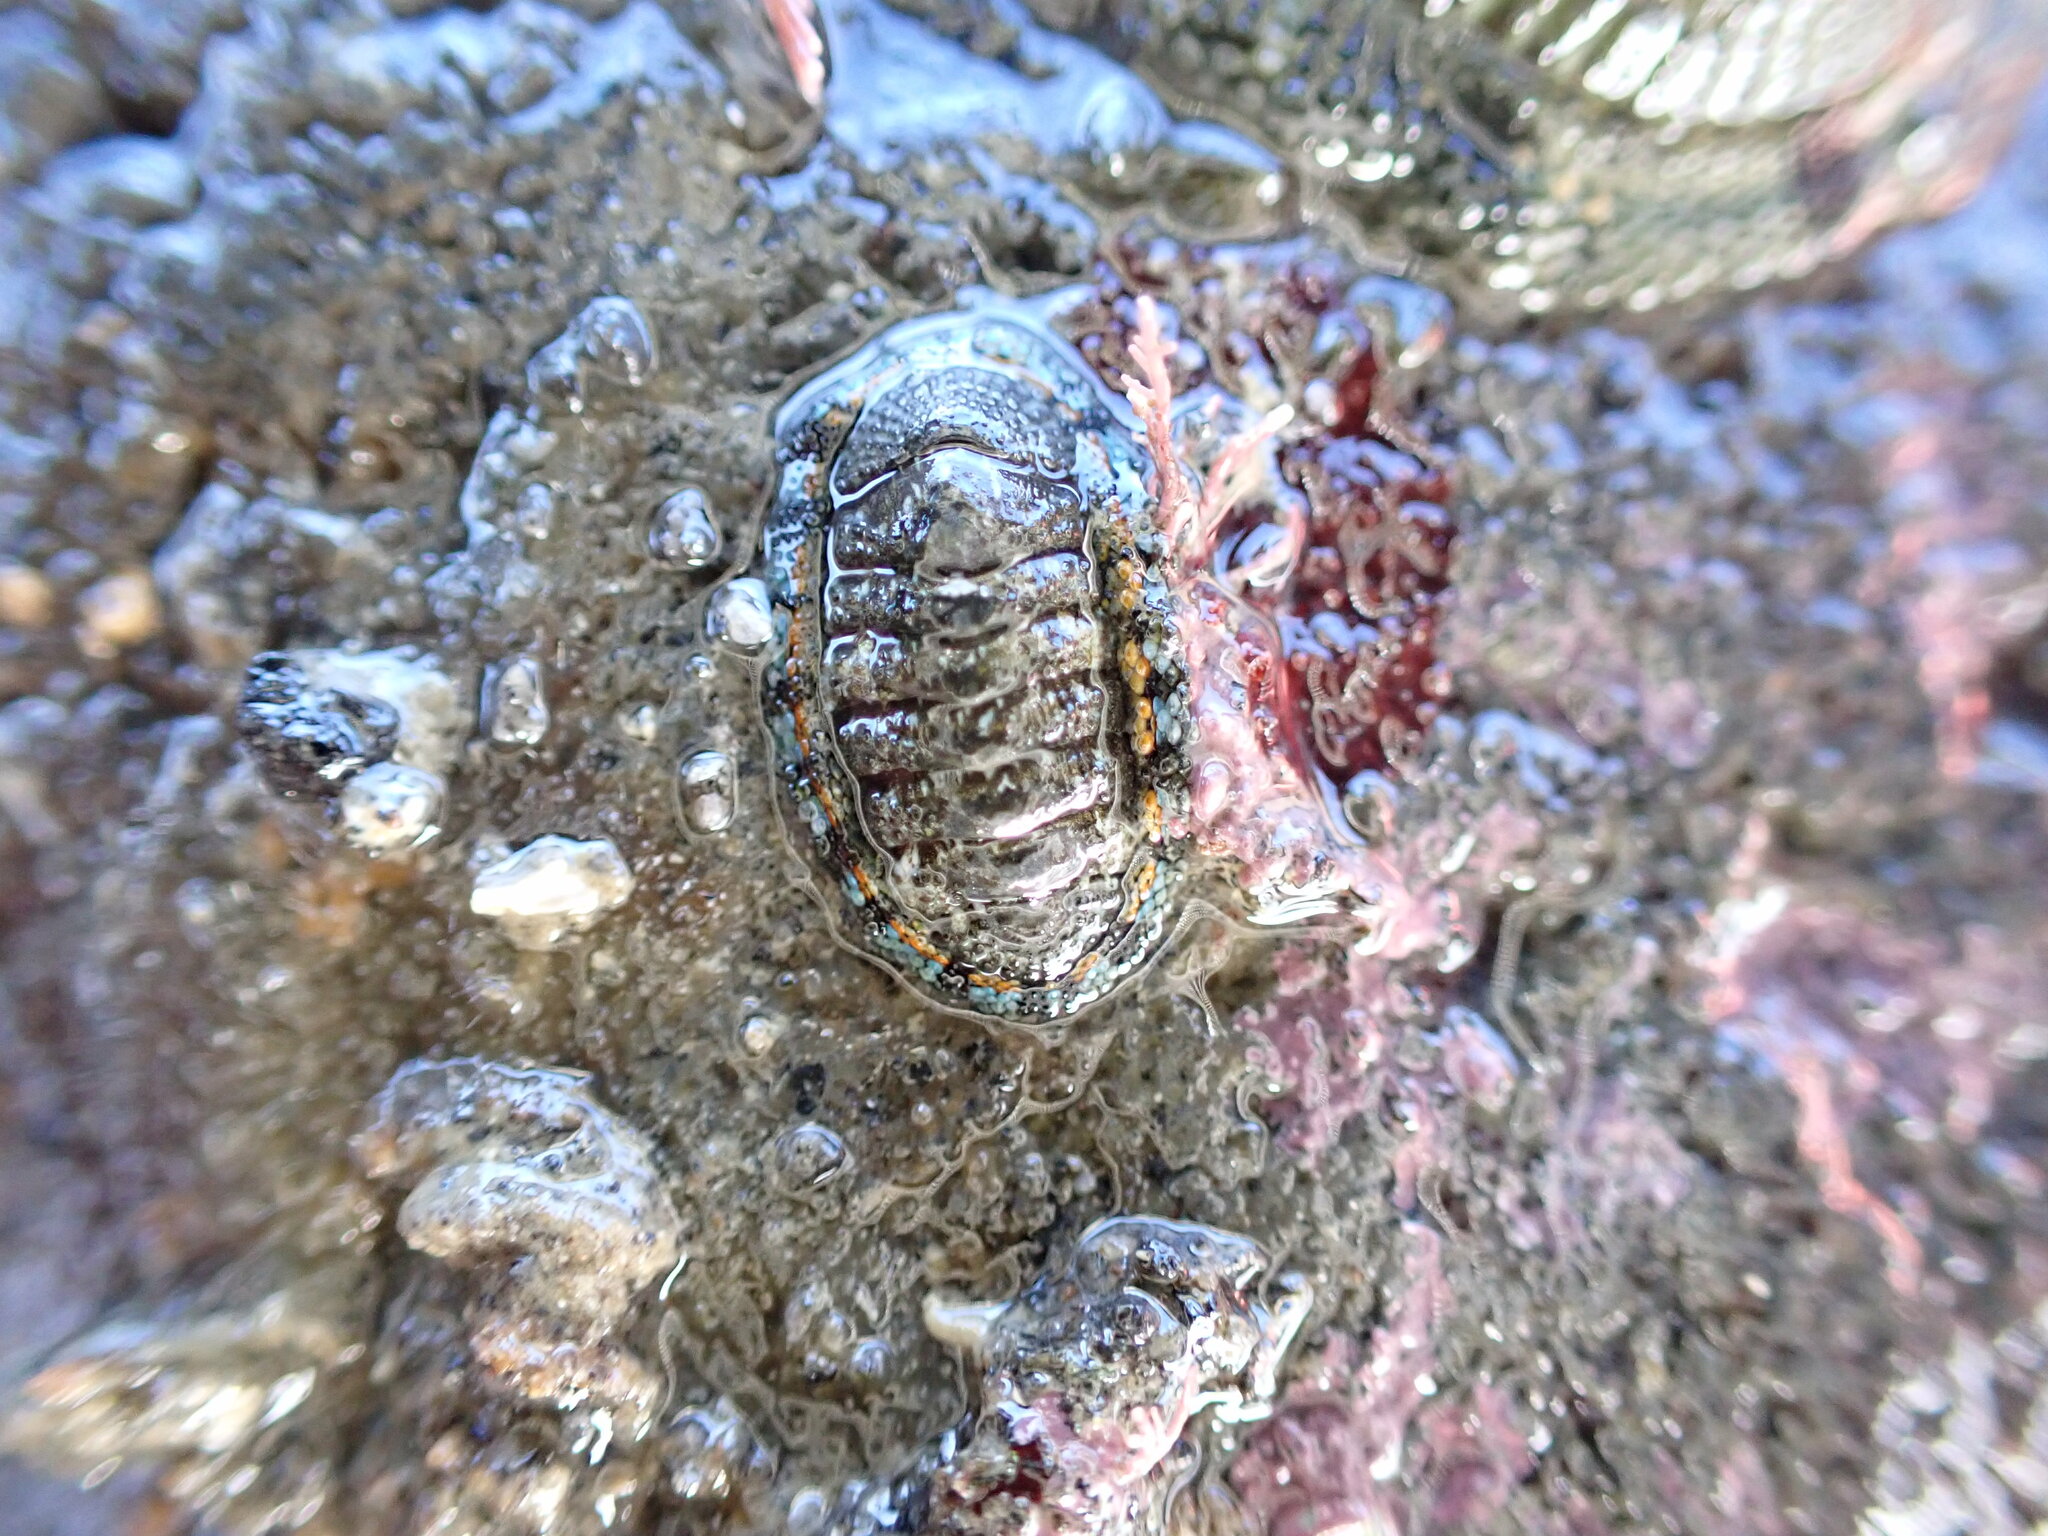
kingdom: Animalia
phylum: Mollusca
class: Polyplacophora
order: Chitonida
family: Chitonidae
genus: Sypharochiton
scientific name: Sypharochiton sinclairi
